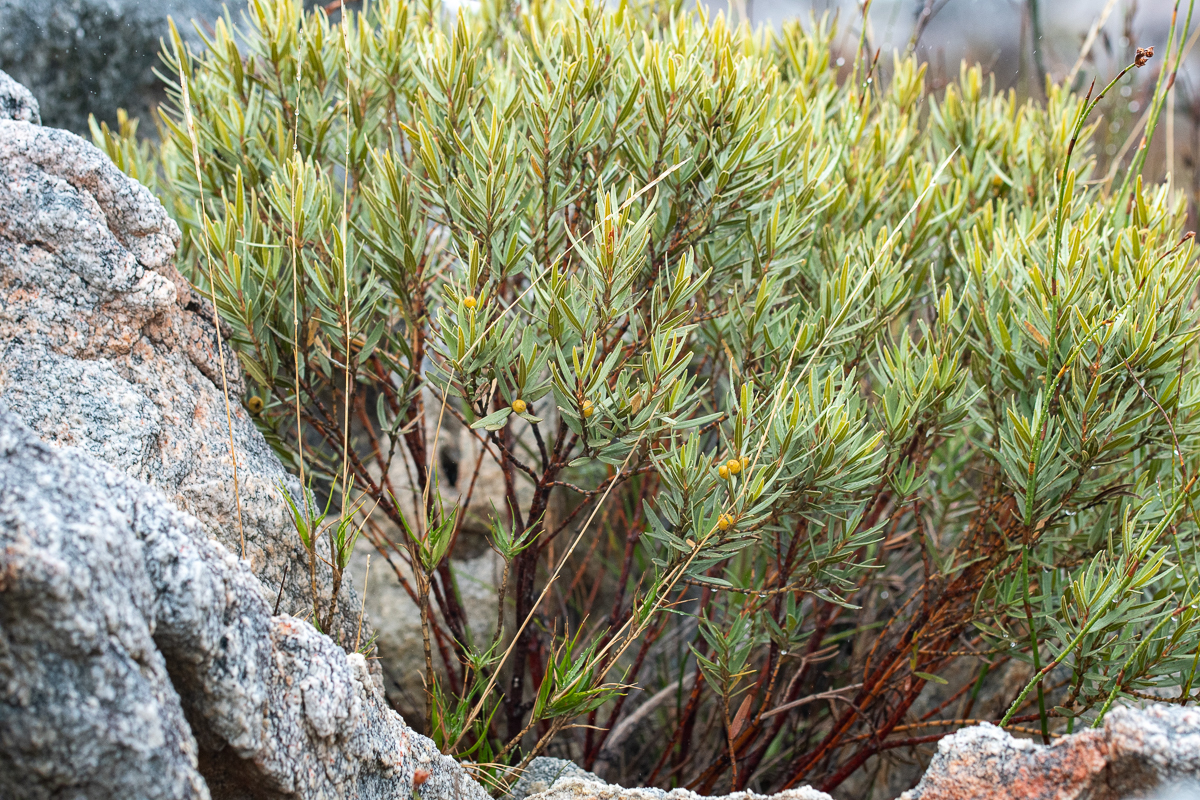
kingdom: Plantae
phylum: Tracheophyta
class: Magnoliopsida
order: Cornales
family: Grubbiaceae
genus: Grubbia
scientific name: Grubbia tomentosa
